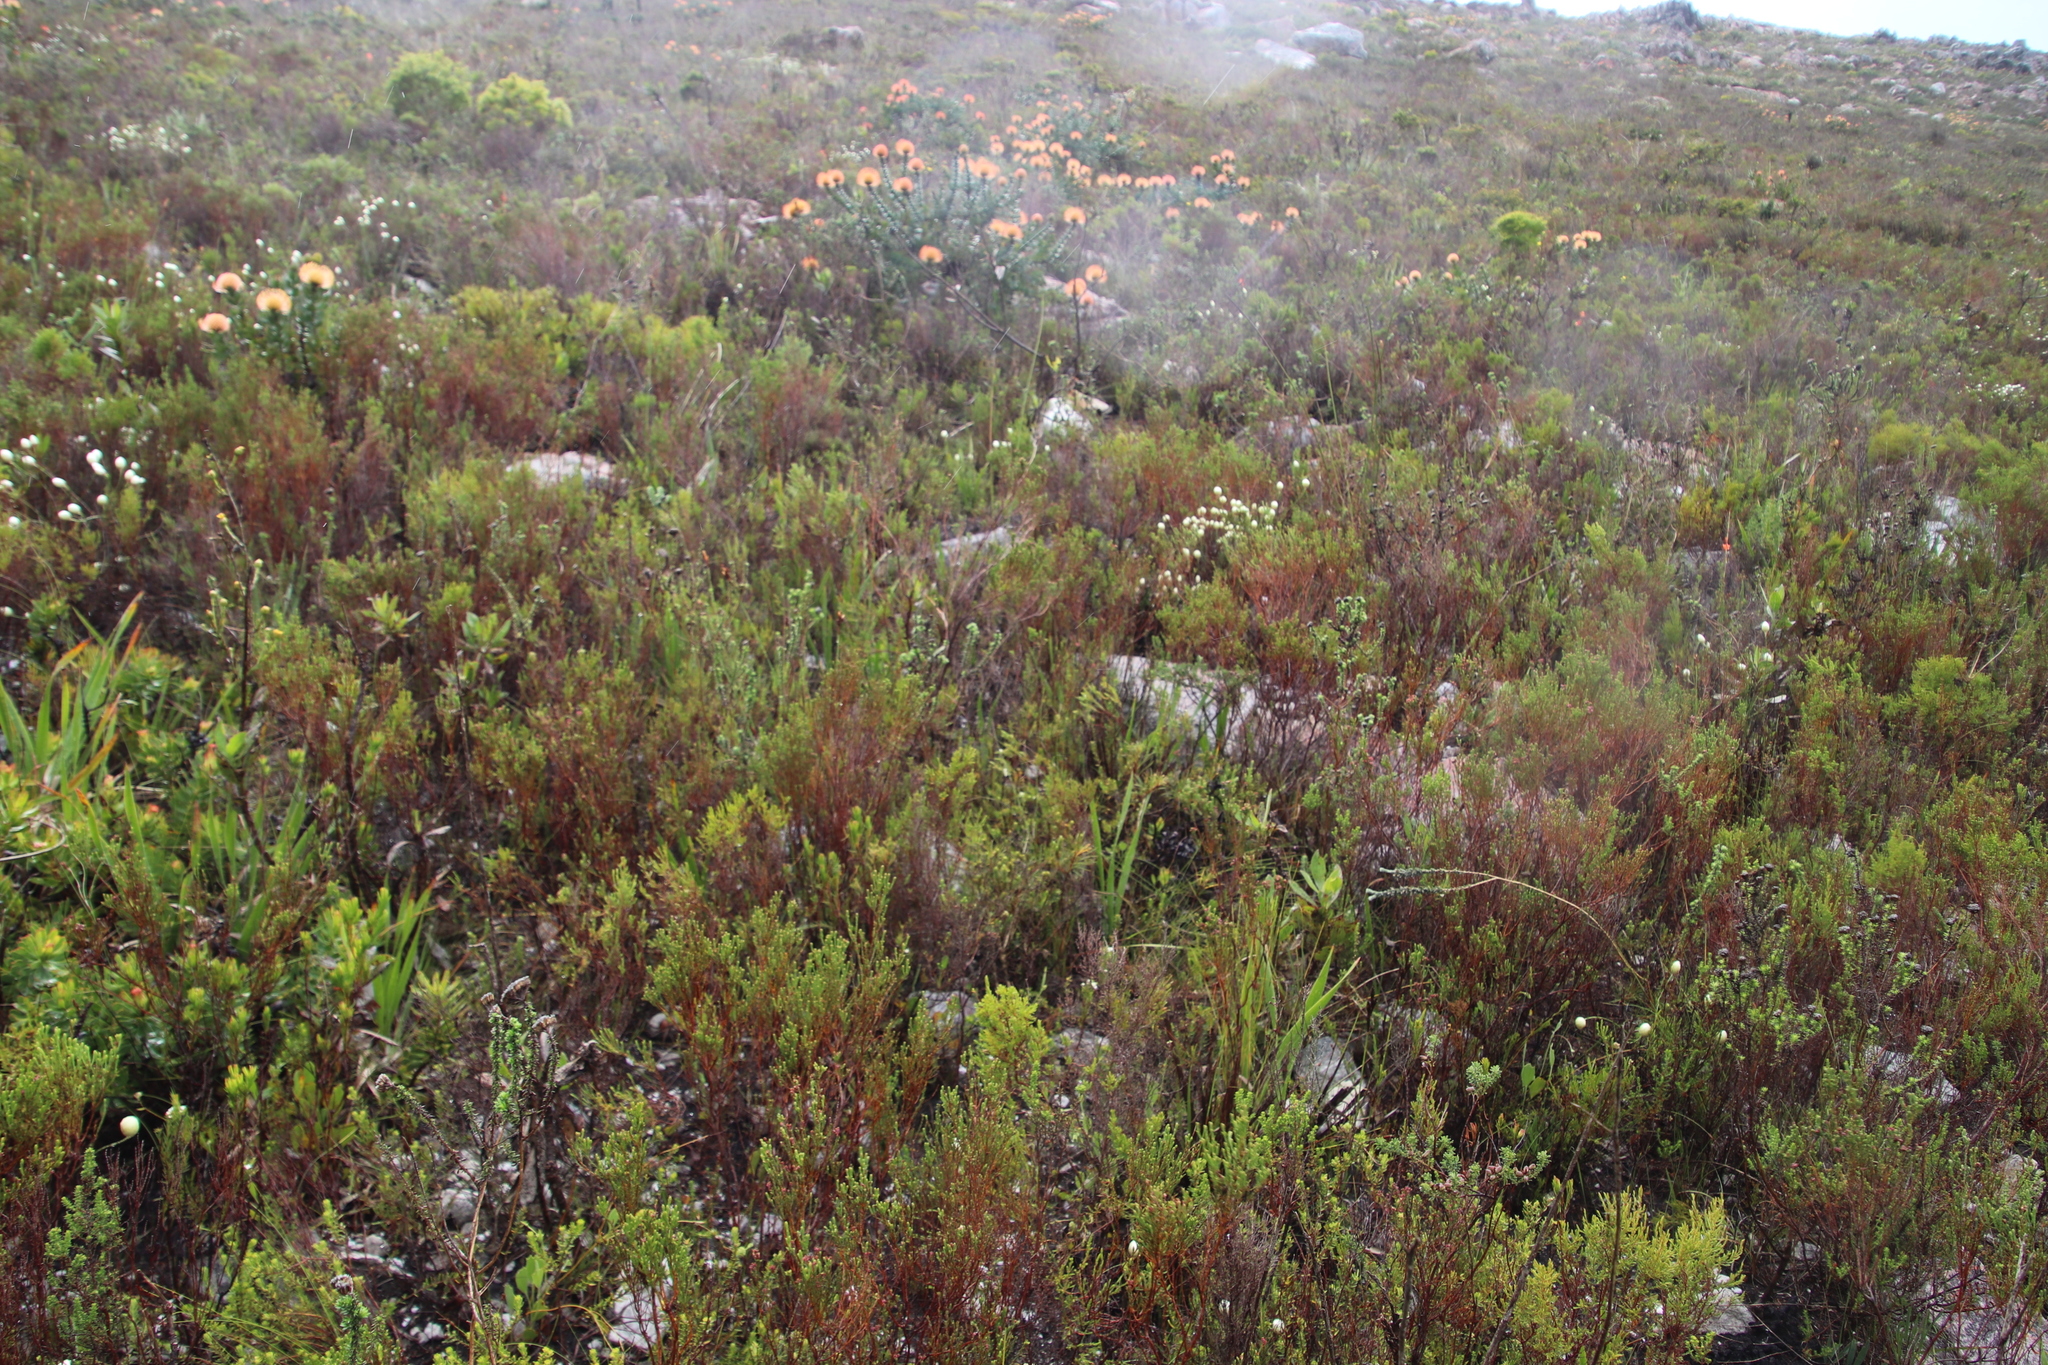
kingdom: Plantae
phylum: Tracheophyta
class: Magnoliopsida
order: Ericales
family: Ericaceae
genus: Erica
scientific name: Erica corifolia
